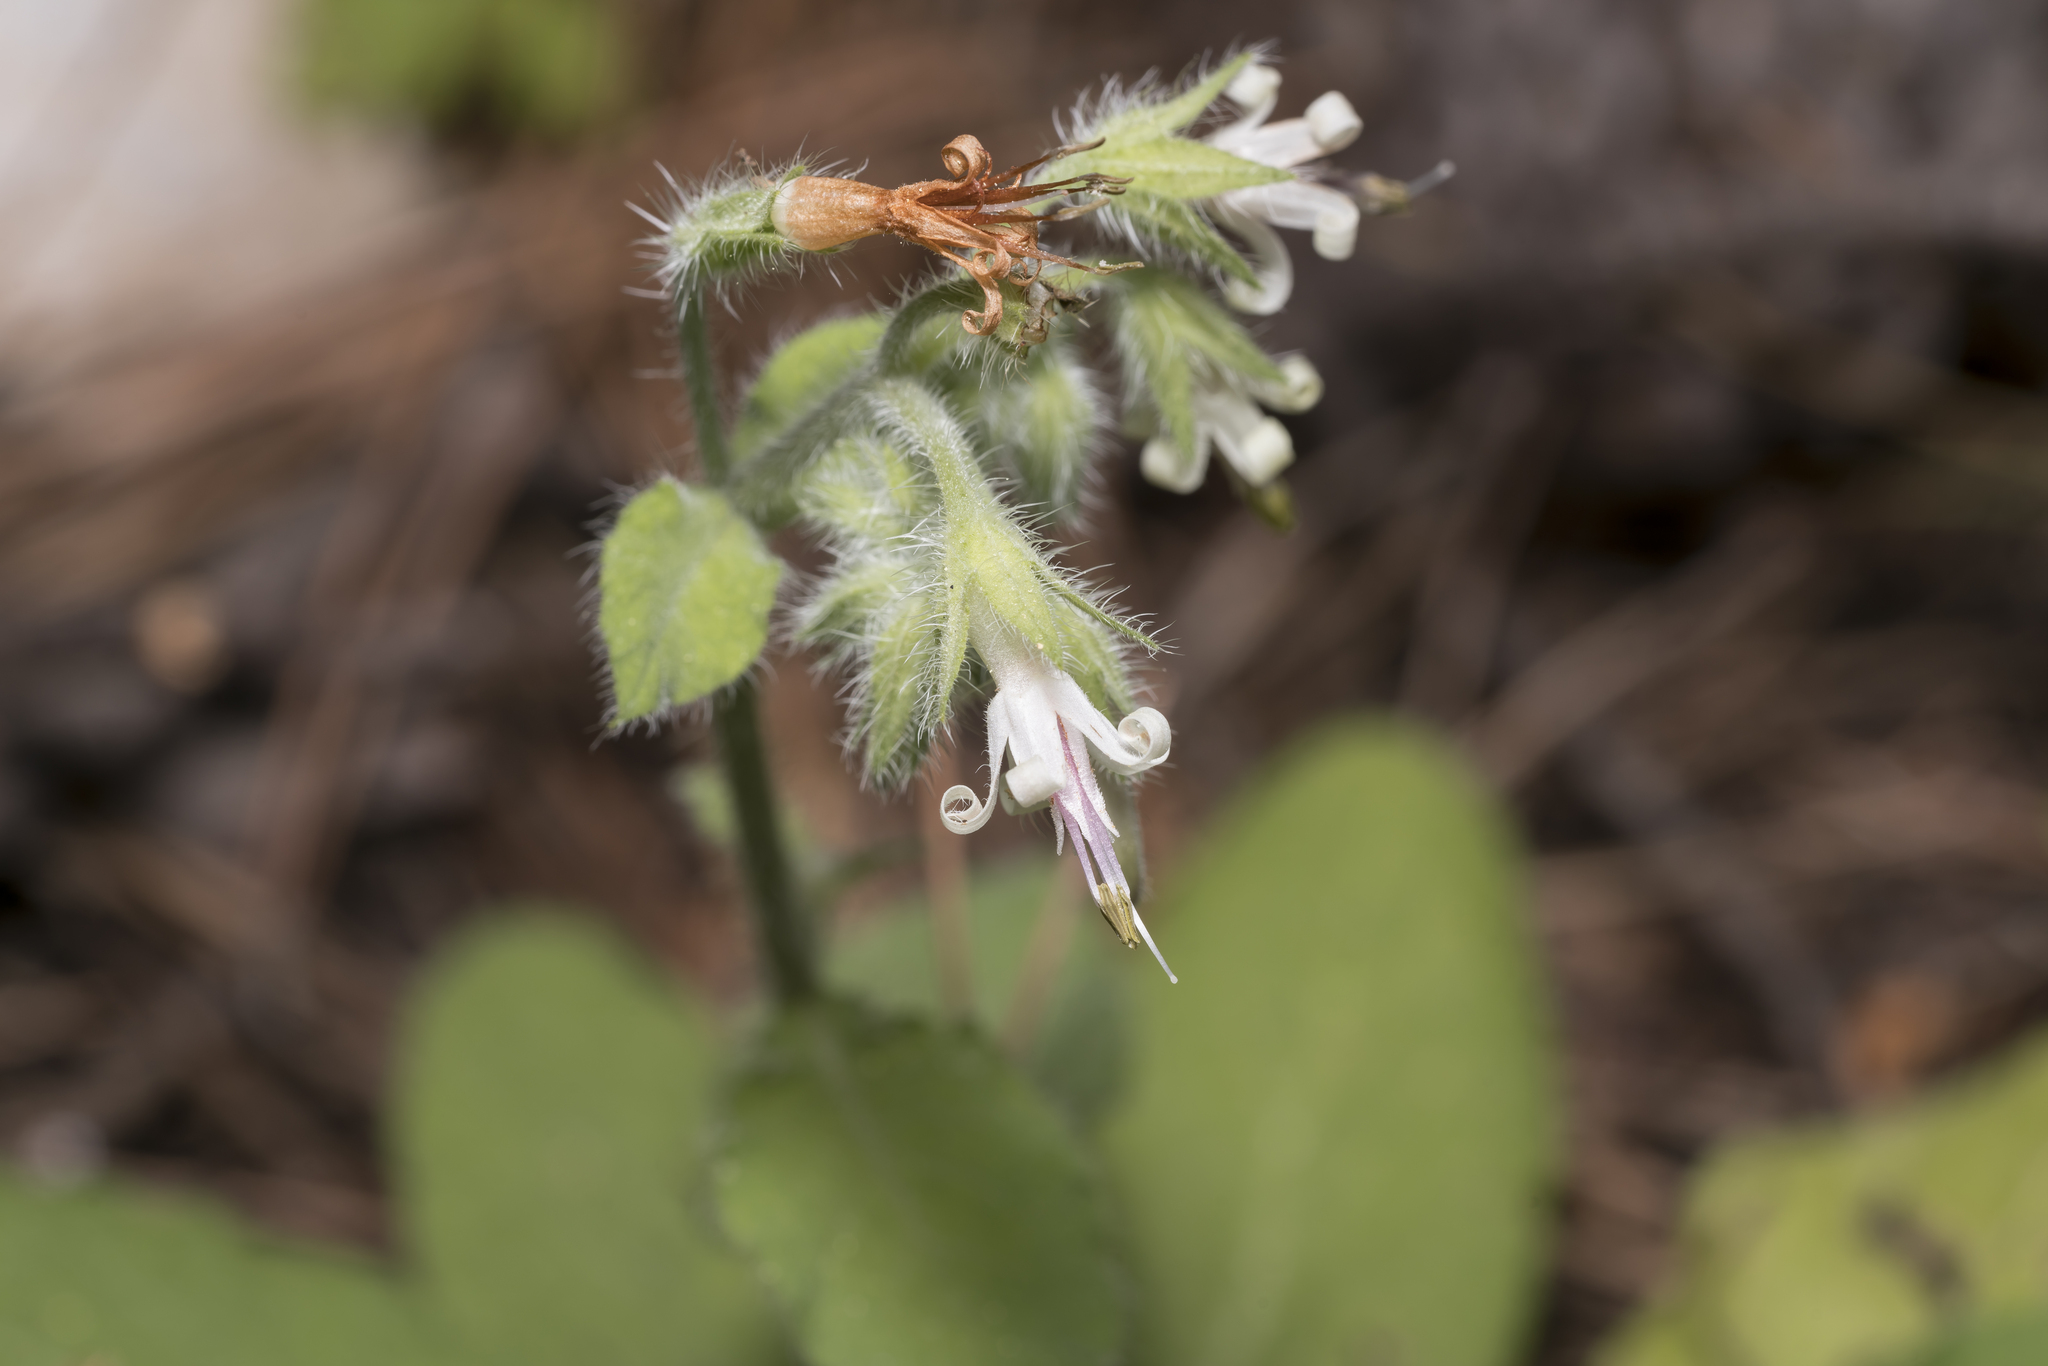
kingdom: Plantae
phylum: Tracheophyta
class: Magnoliopsida
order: Boraginales
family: Boraginaceae
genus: Symphytum
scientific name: Symphytum circinale
